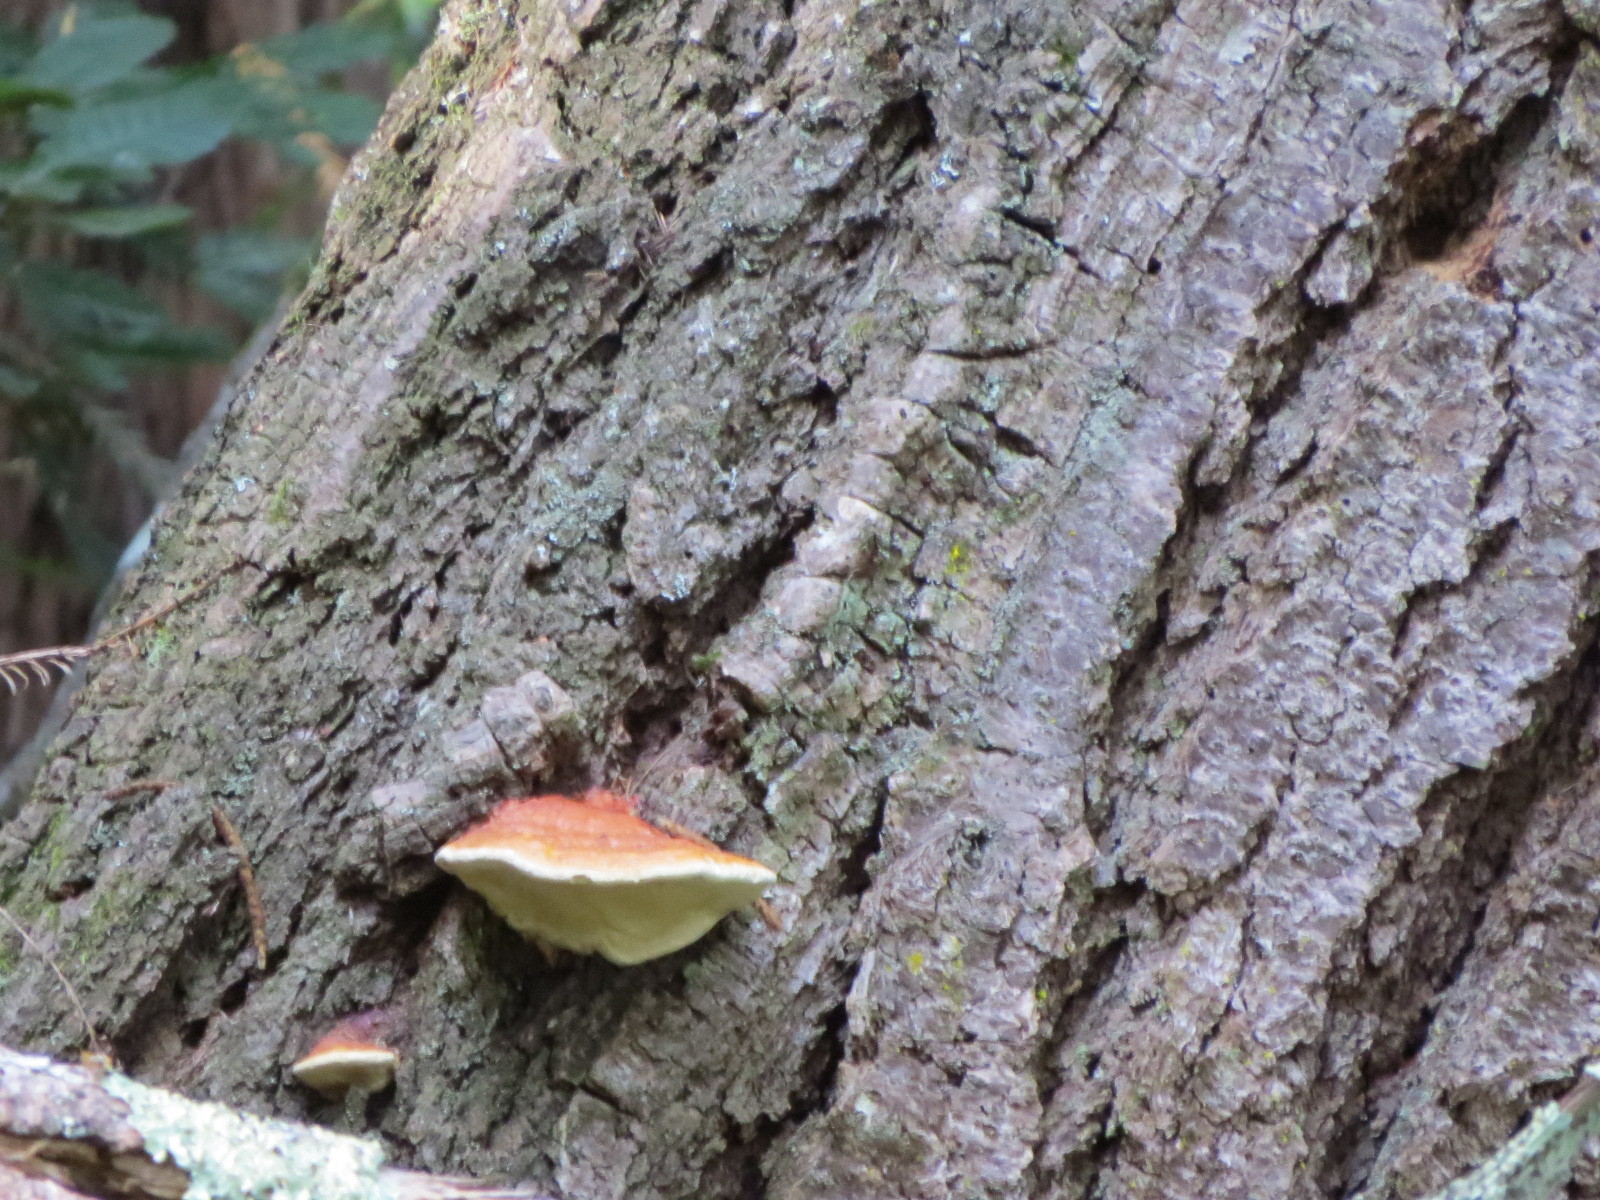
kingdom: Fungi
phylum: Basidiomycota
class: Agaricomycetes
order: Polyporales
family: Fomitopsidaceae
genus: Fomitopsis
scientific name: Fomitopsis mounceae
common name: Northern red belt
